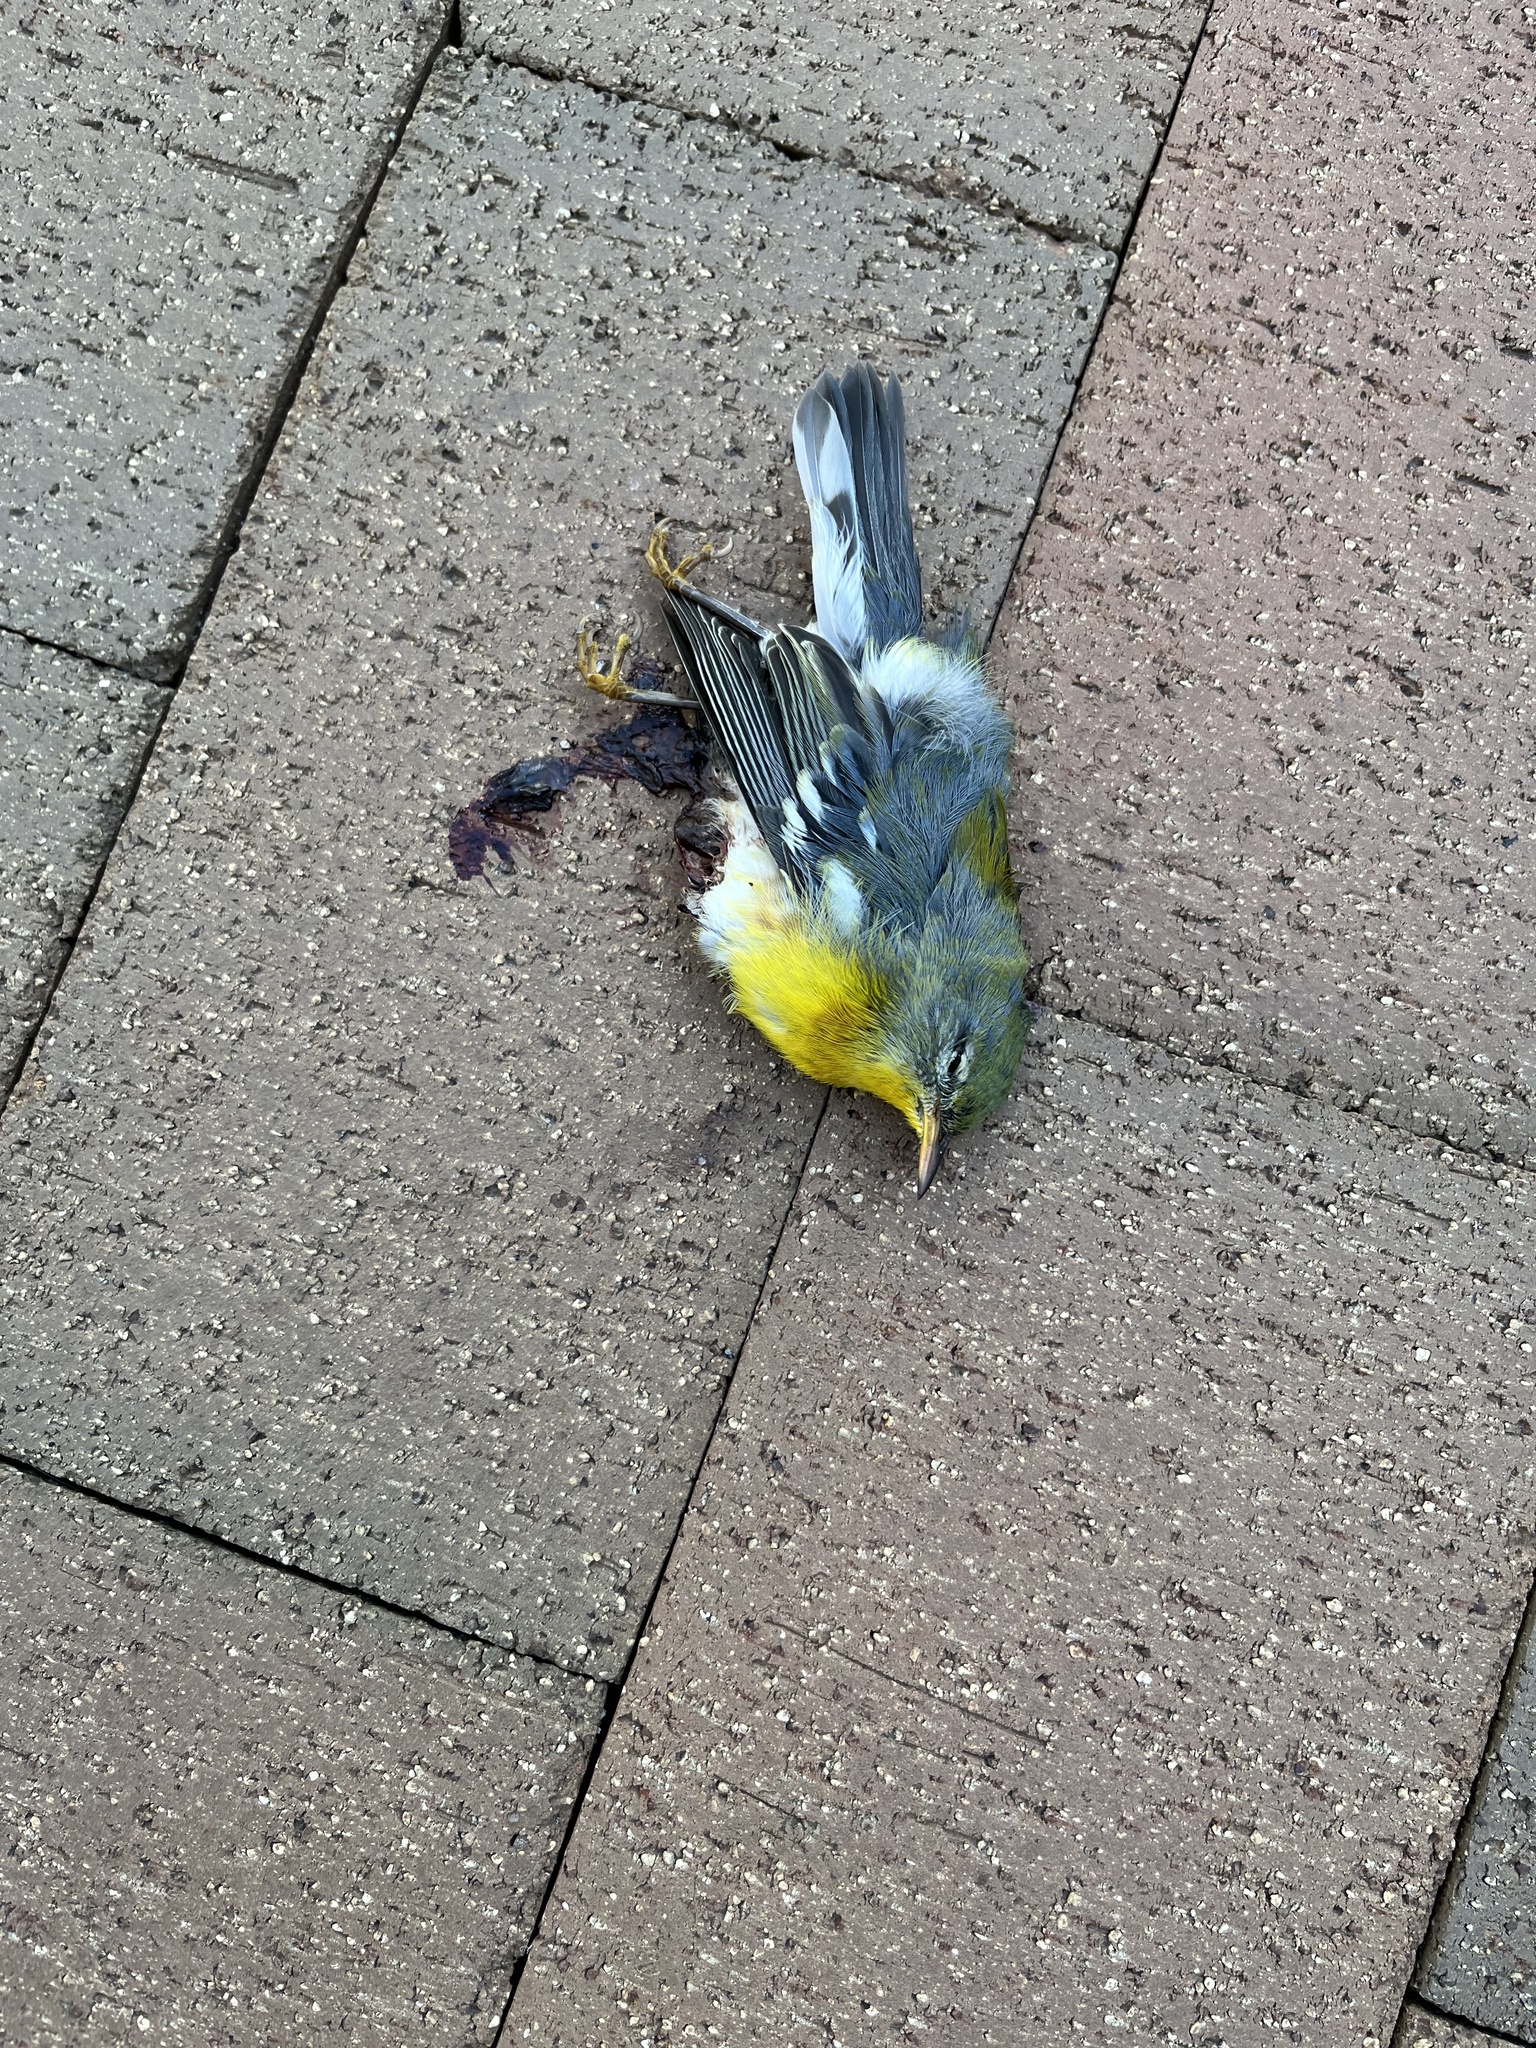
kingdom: Animalia
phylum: Chordata
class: Aves
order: Passeriformes
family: Parulidae
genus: Setophaga
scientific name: Setophaga americana
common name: Northern parula
